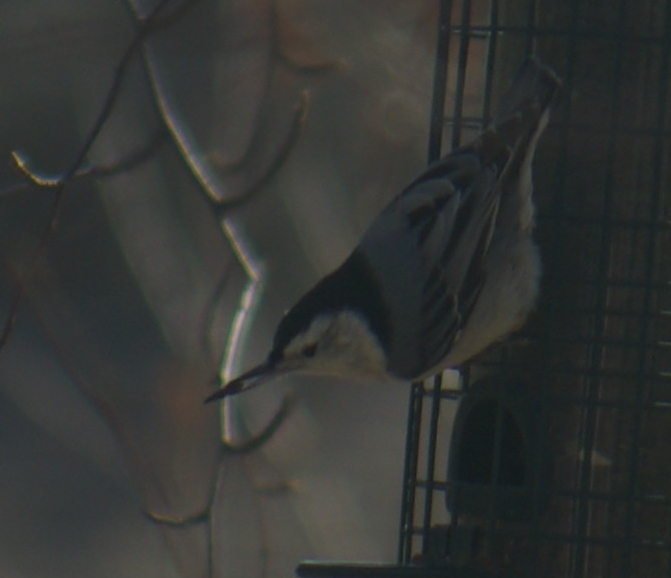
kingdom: Animalia
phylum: Chordata
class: Aves
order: Passeriformes
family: Sittidae
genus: Sitta
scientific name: Sitta carolinensis
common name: White-breasted nuthatch
